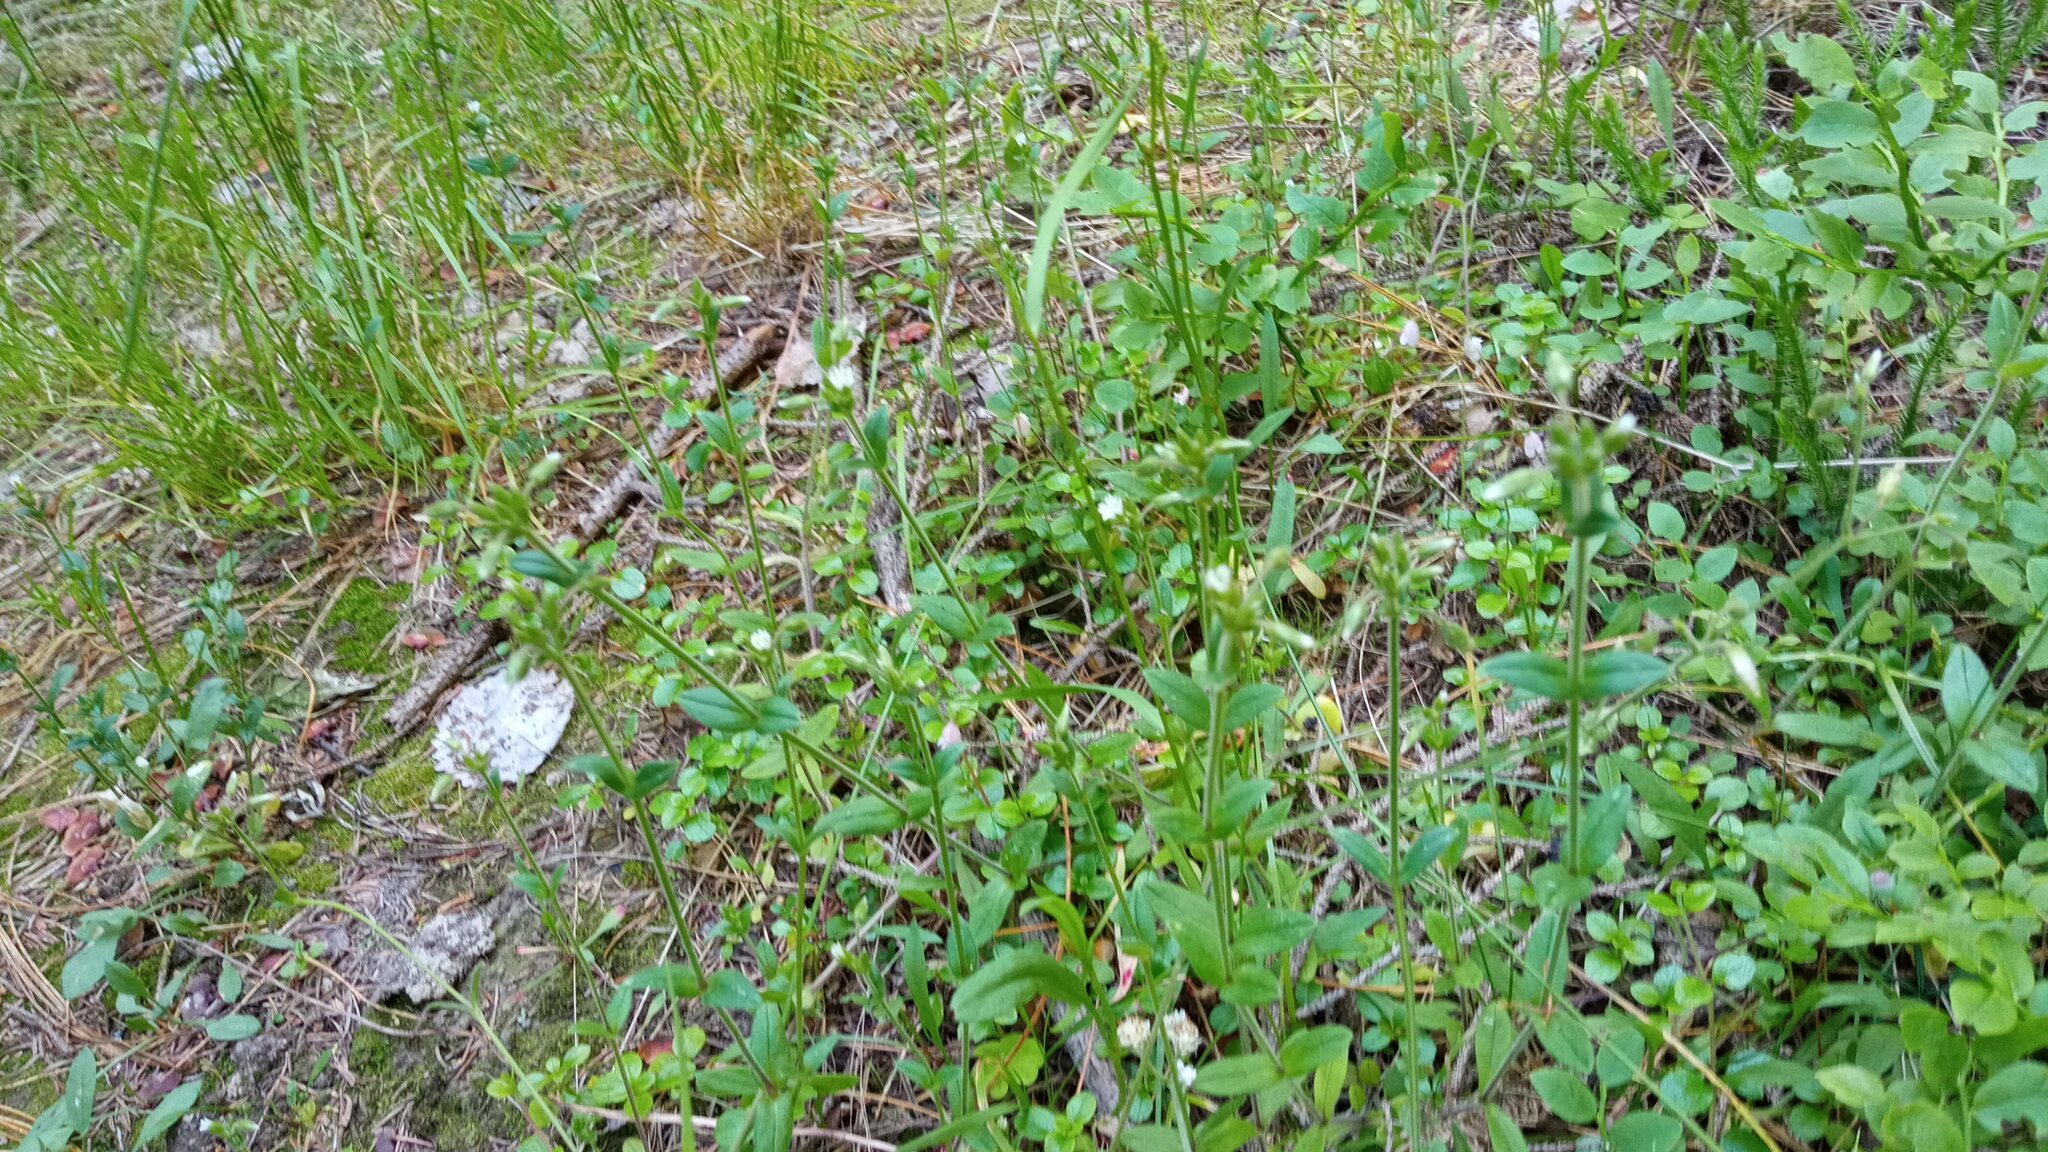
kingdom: Plantae
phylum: Tracheophyta
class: Magnoliopsida
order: Caryophyllales
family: Caryophyllaceae
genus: Cerastium
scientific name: Cerastium holosteoides
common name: Big chickweed
